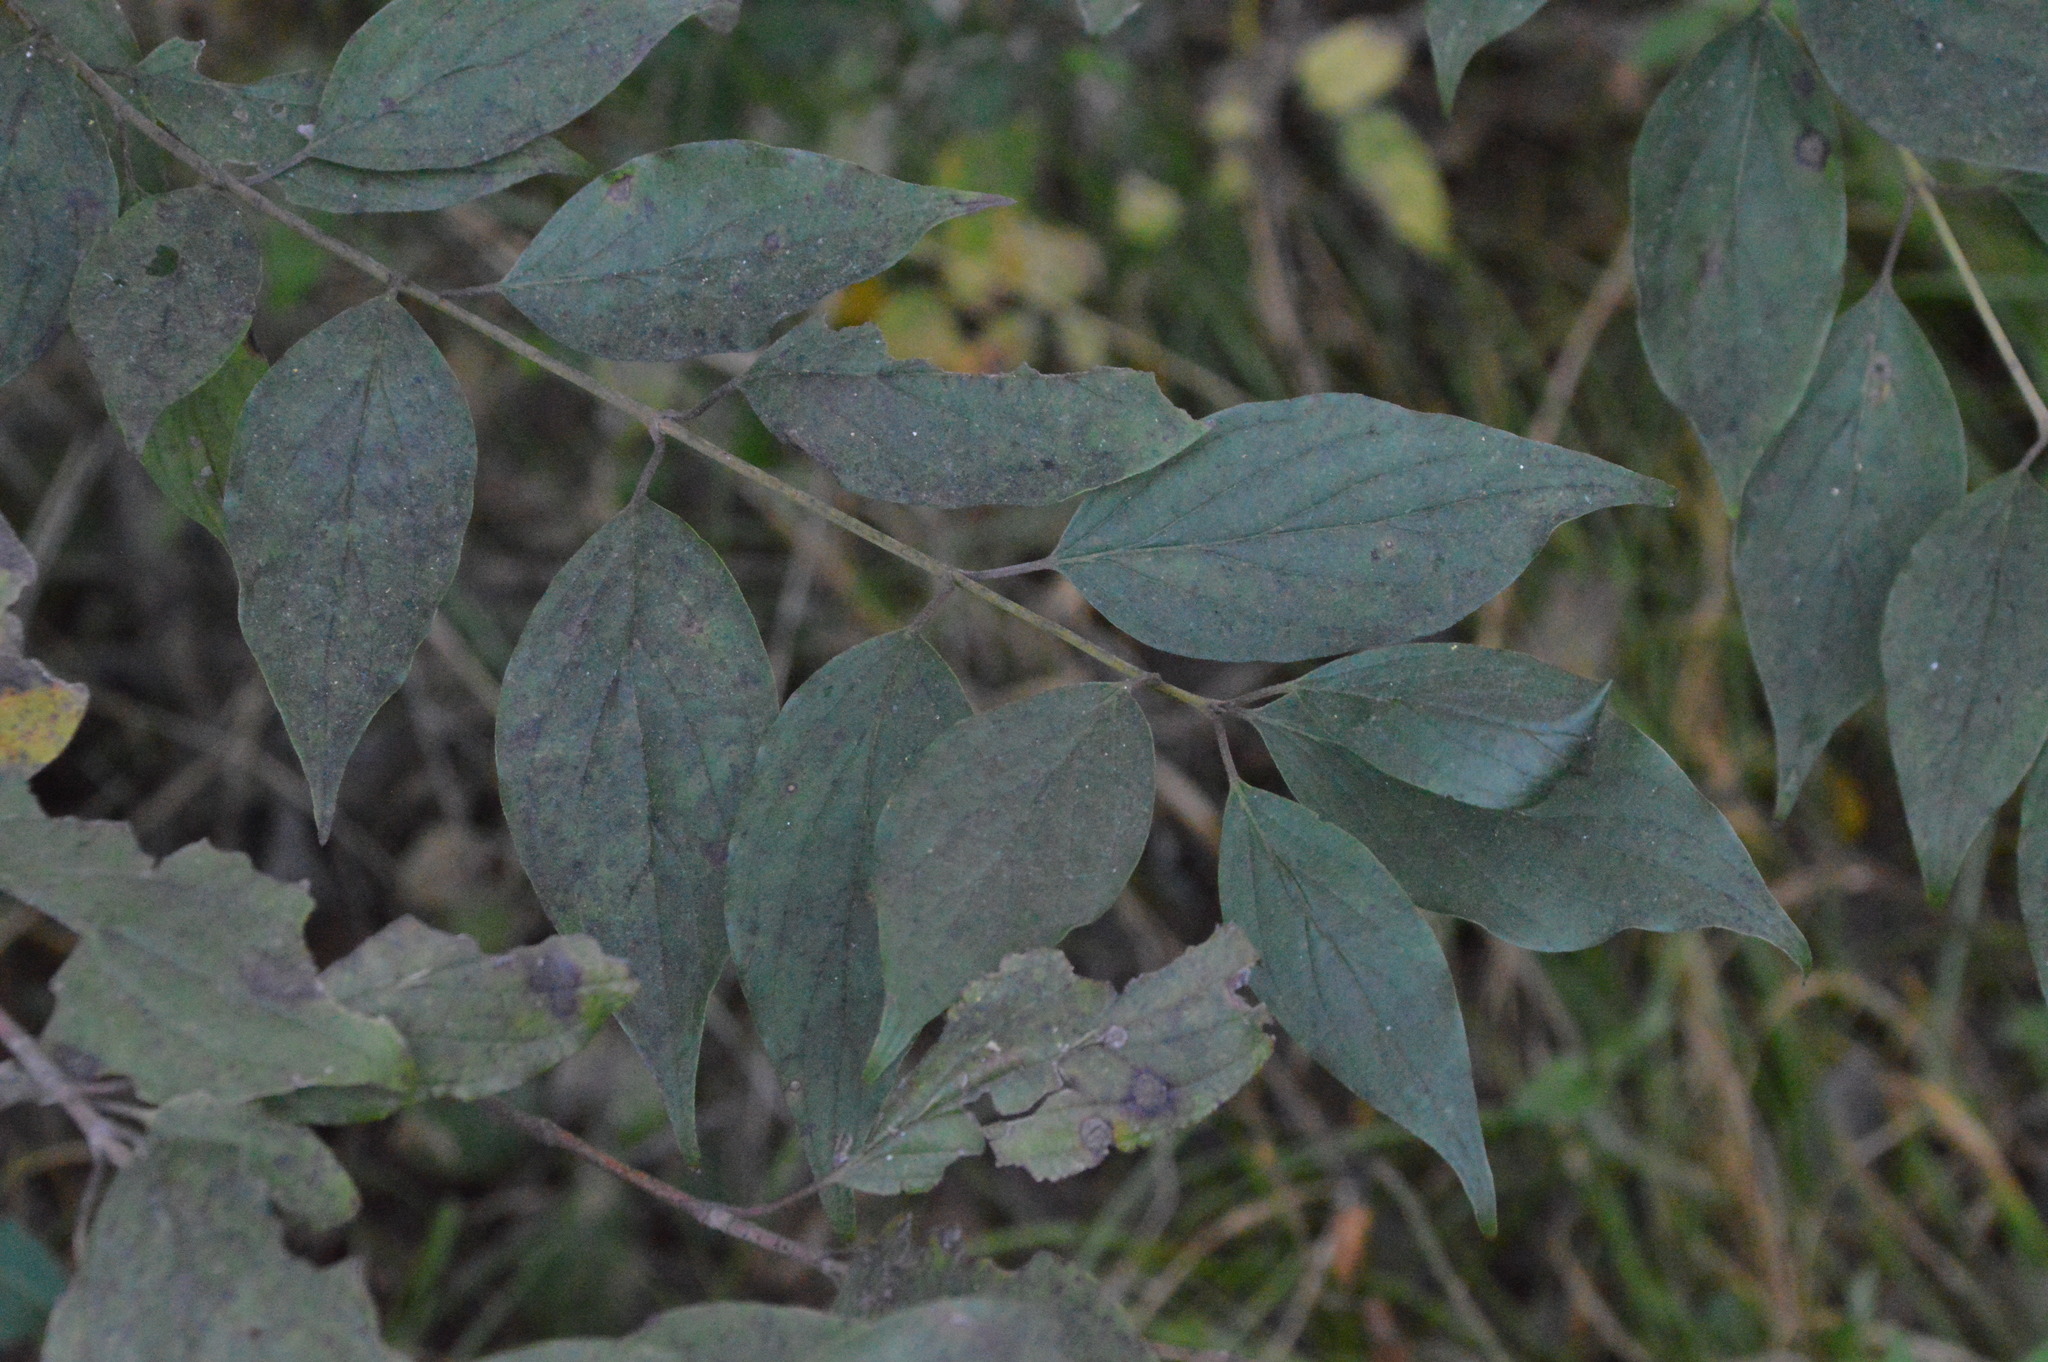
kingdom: Plantae
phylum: Tracheophyta
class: Magnoliopsida
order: Cornales
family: Cornaceae
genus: Cornus
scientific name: Cornus drummondii
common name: Rough-leaf dogwood
